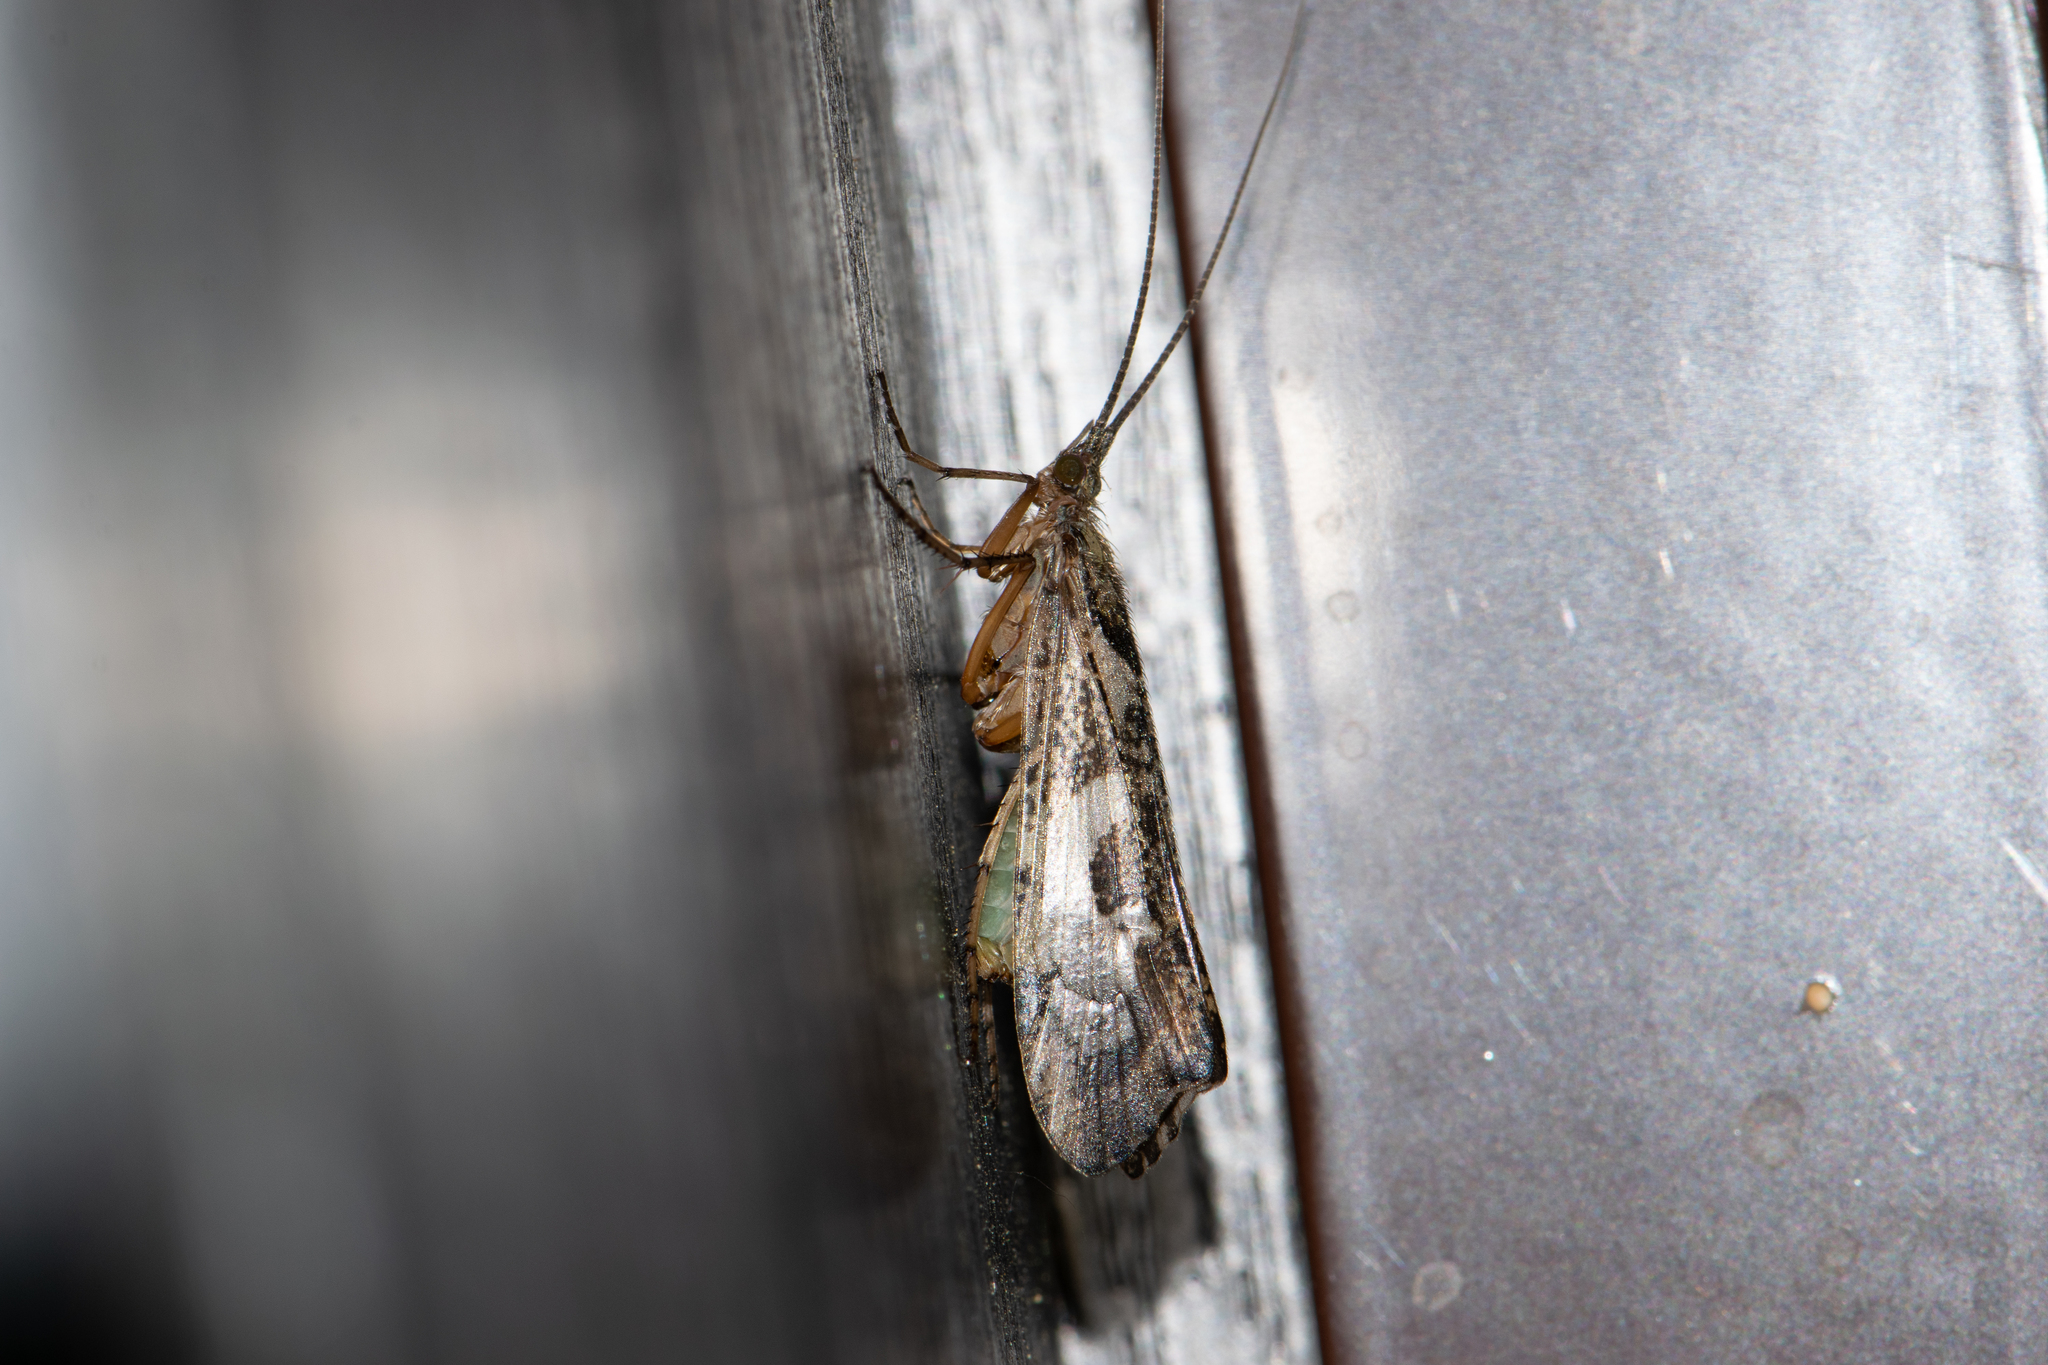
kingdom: Animalia
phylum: Arthropoda
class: Insecta
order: Trichoptera
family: Limnephilidae
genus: Glyphotaelius
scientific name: Glyphotaelius pellucidus
